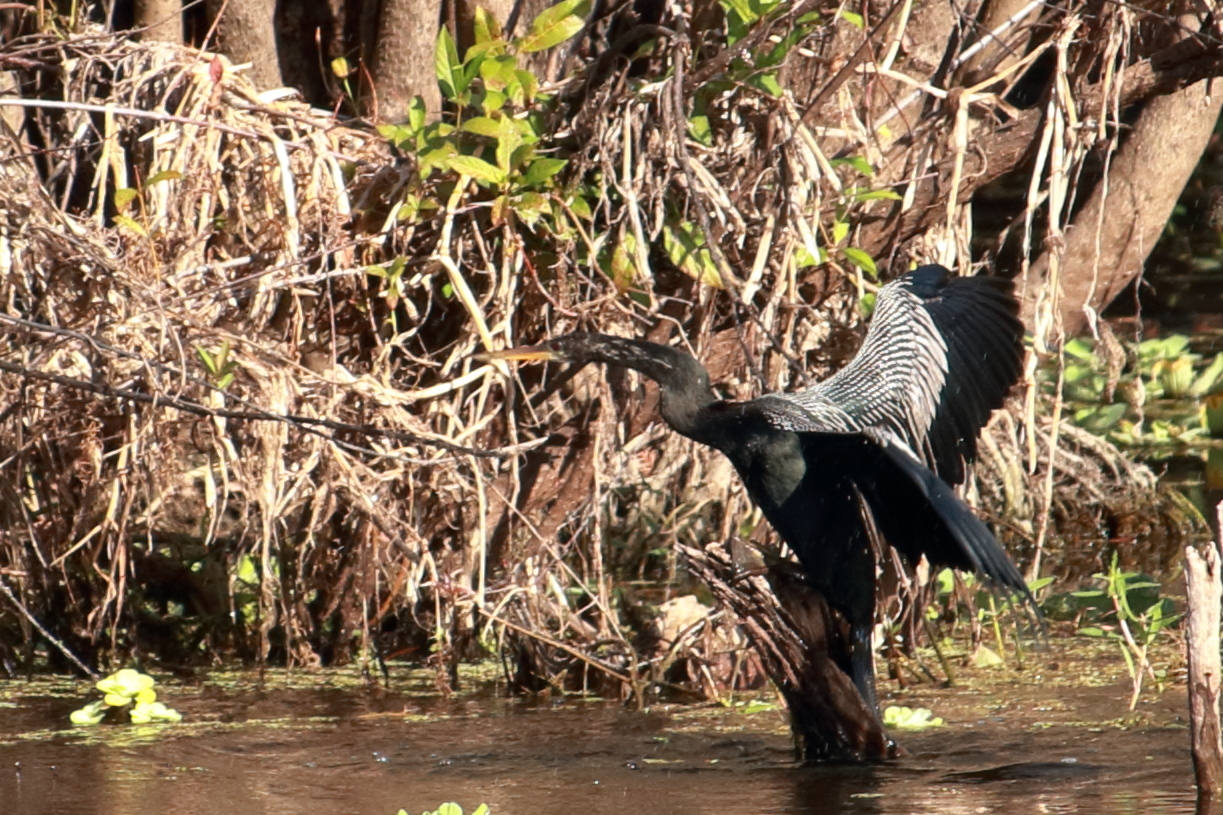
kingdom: Animalia
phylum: Chordata
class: Aves
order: Suliformes
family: Anhingidae
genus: Anhinga
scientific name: Anhinga anhinga
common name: Anhinga
